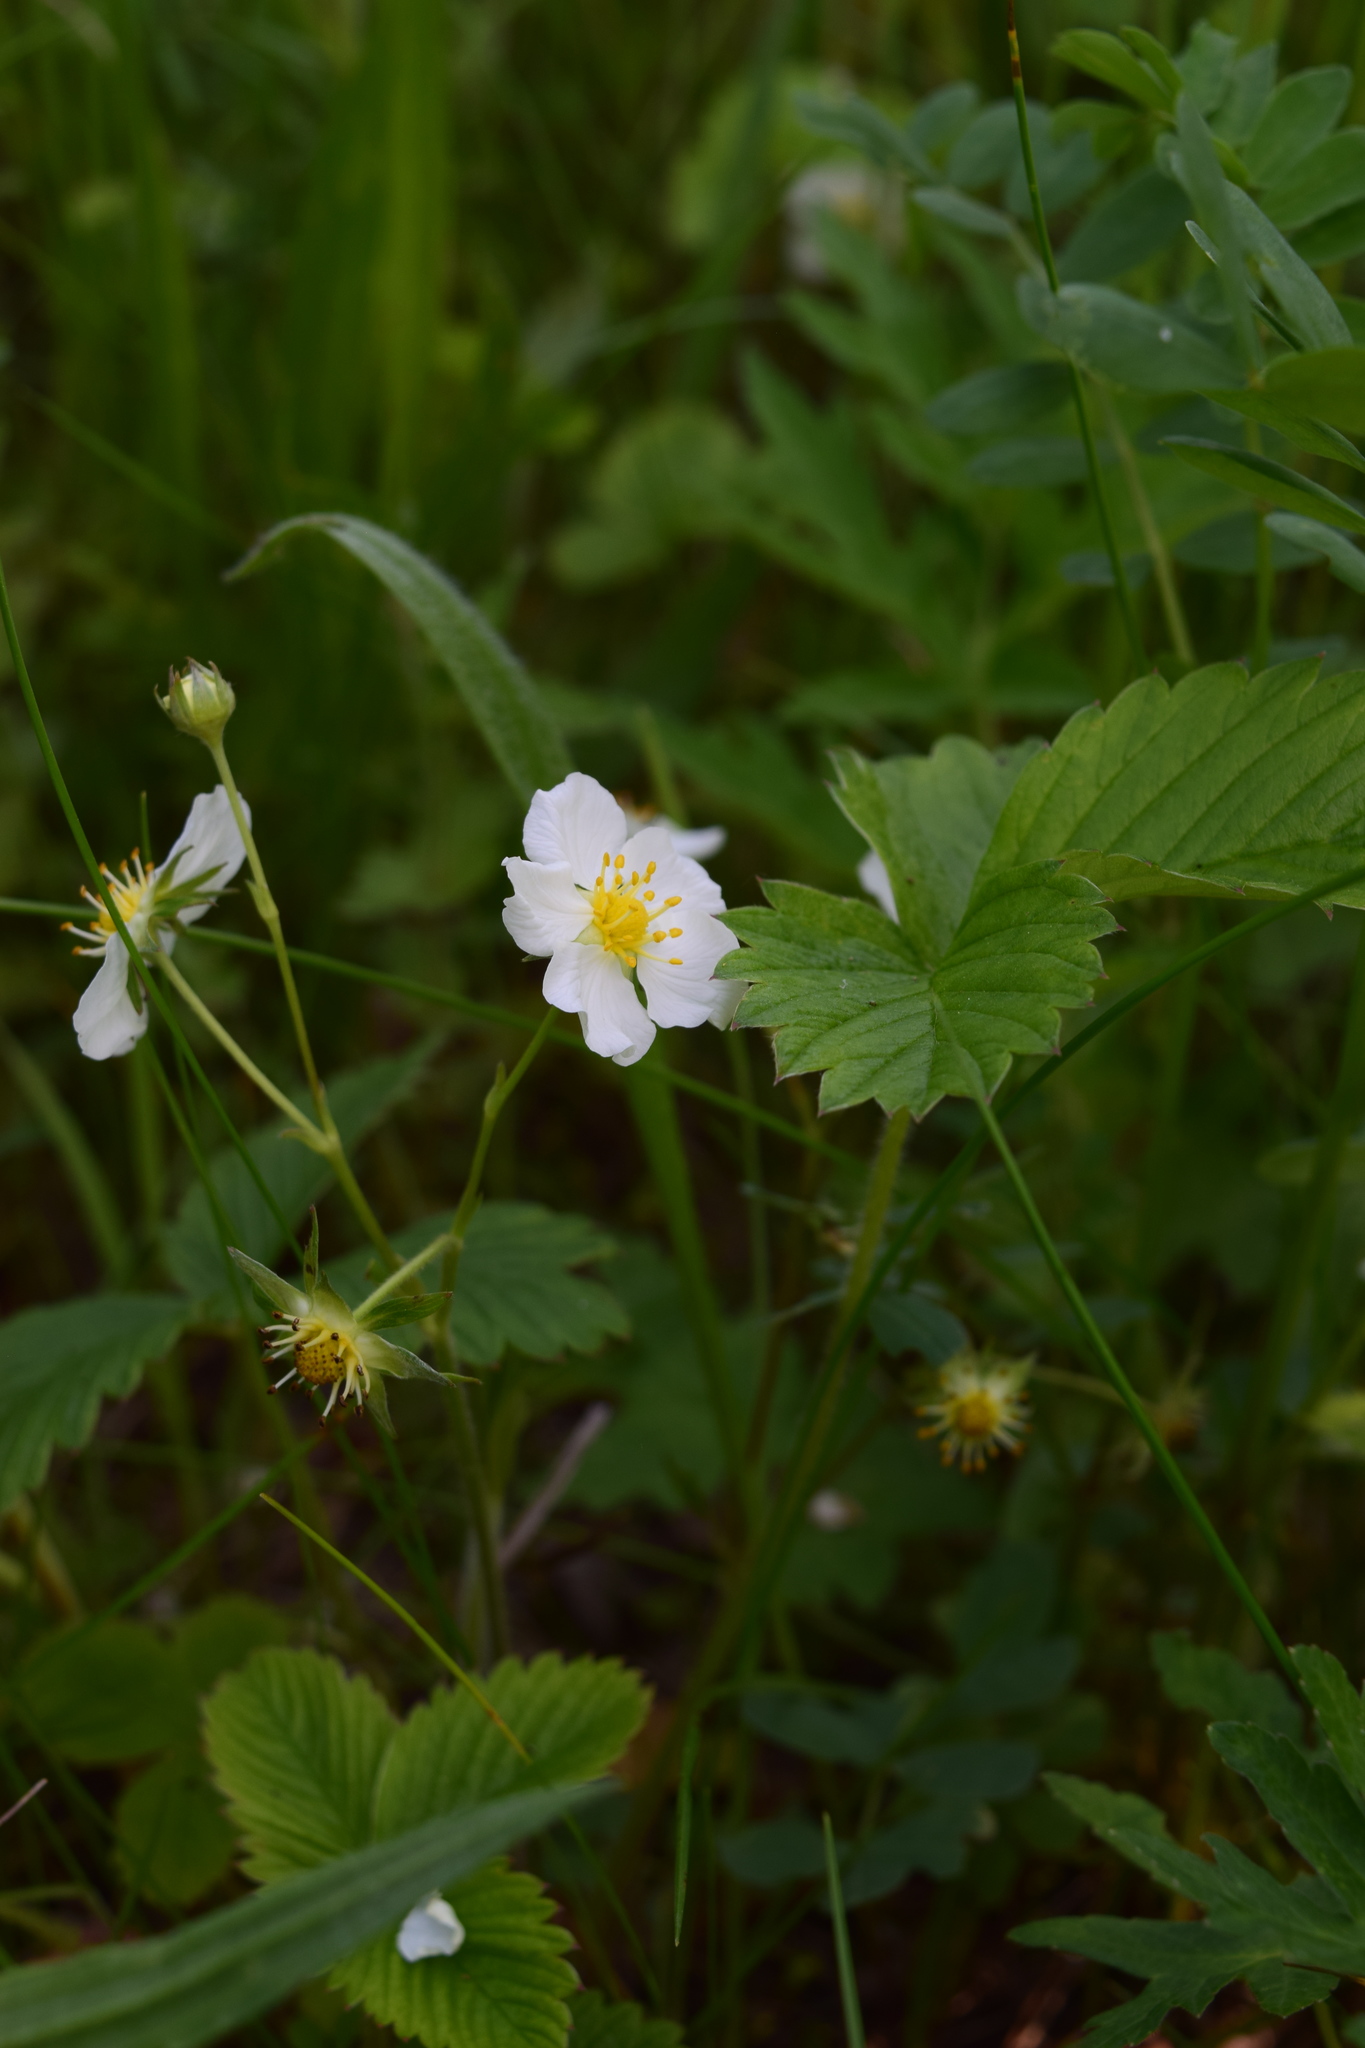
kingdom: Plantae
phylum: Tracheophyta
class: Magnoliopsida
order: Rosales
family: Rosaceae
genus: Fragaria
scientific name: Fragaria viridis
